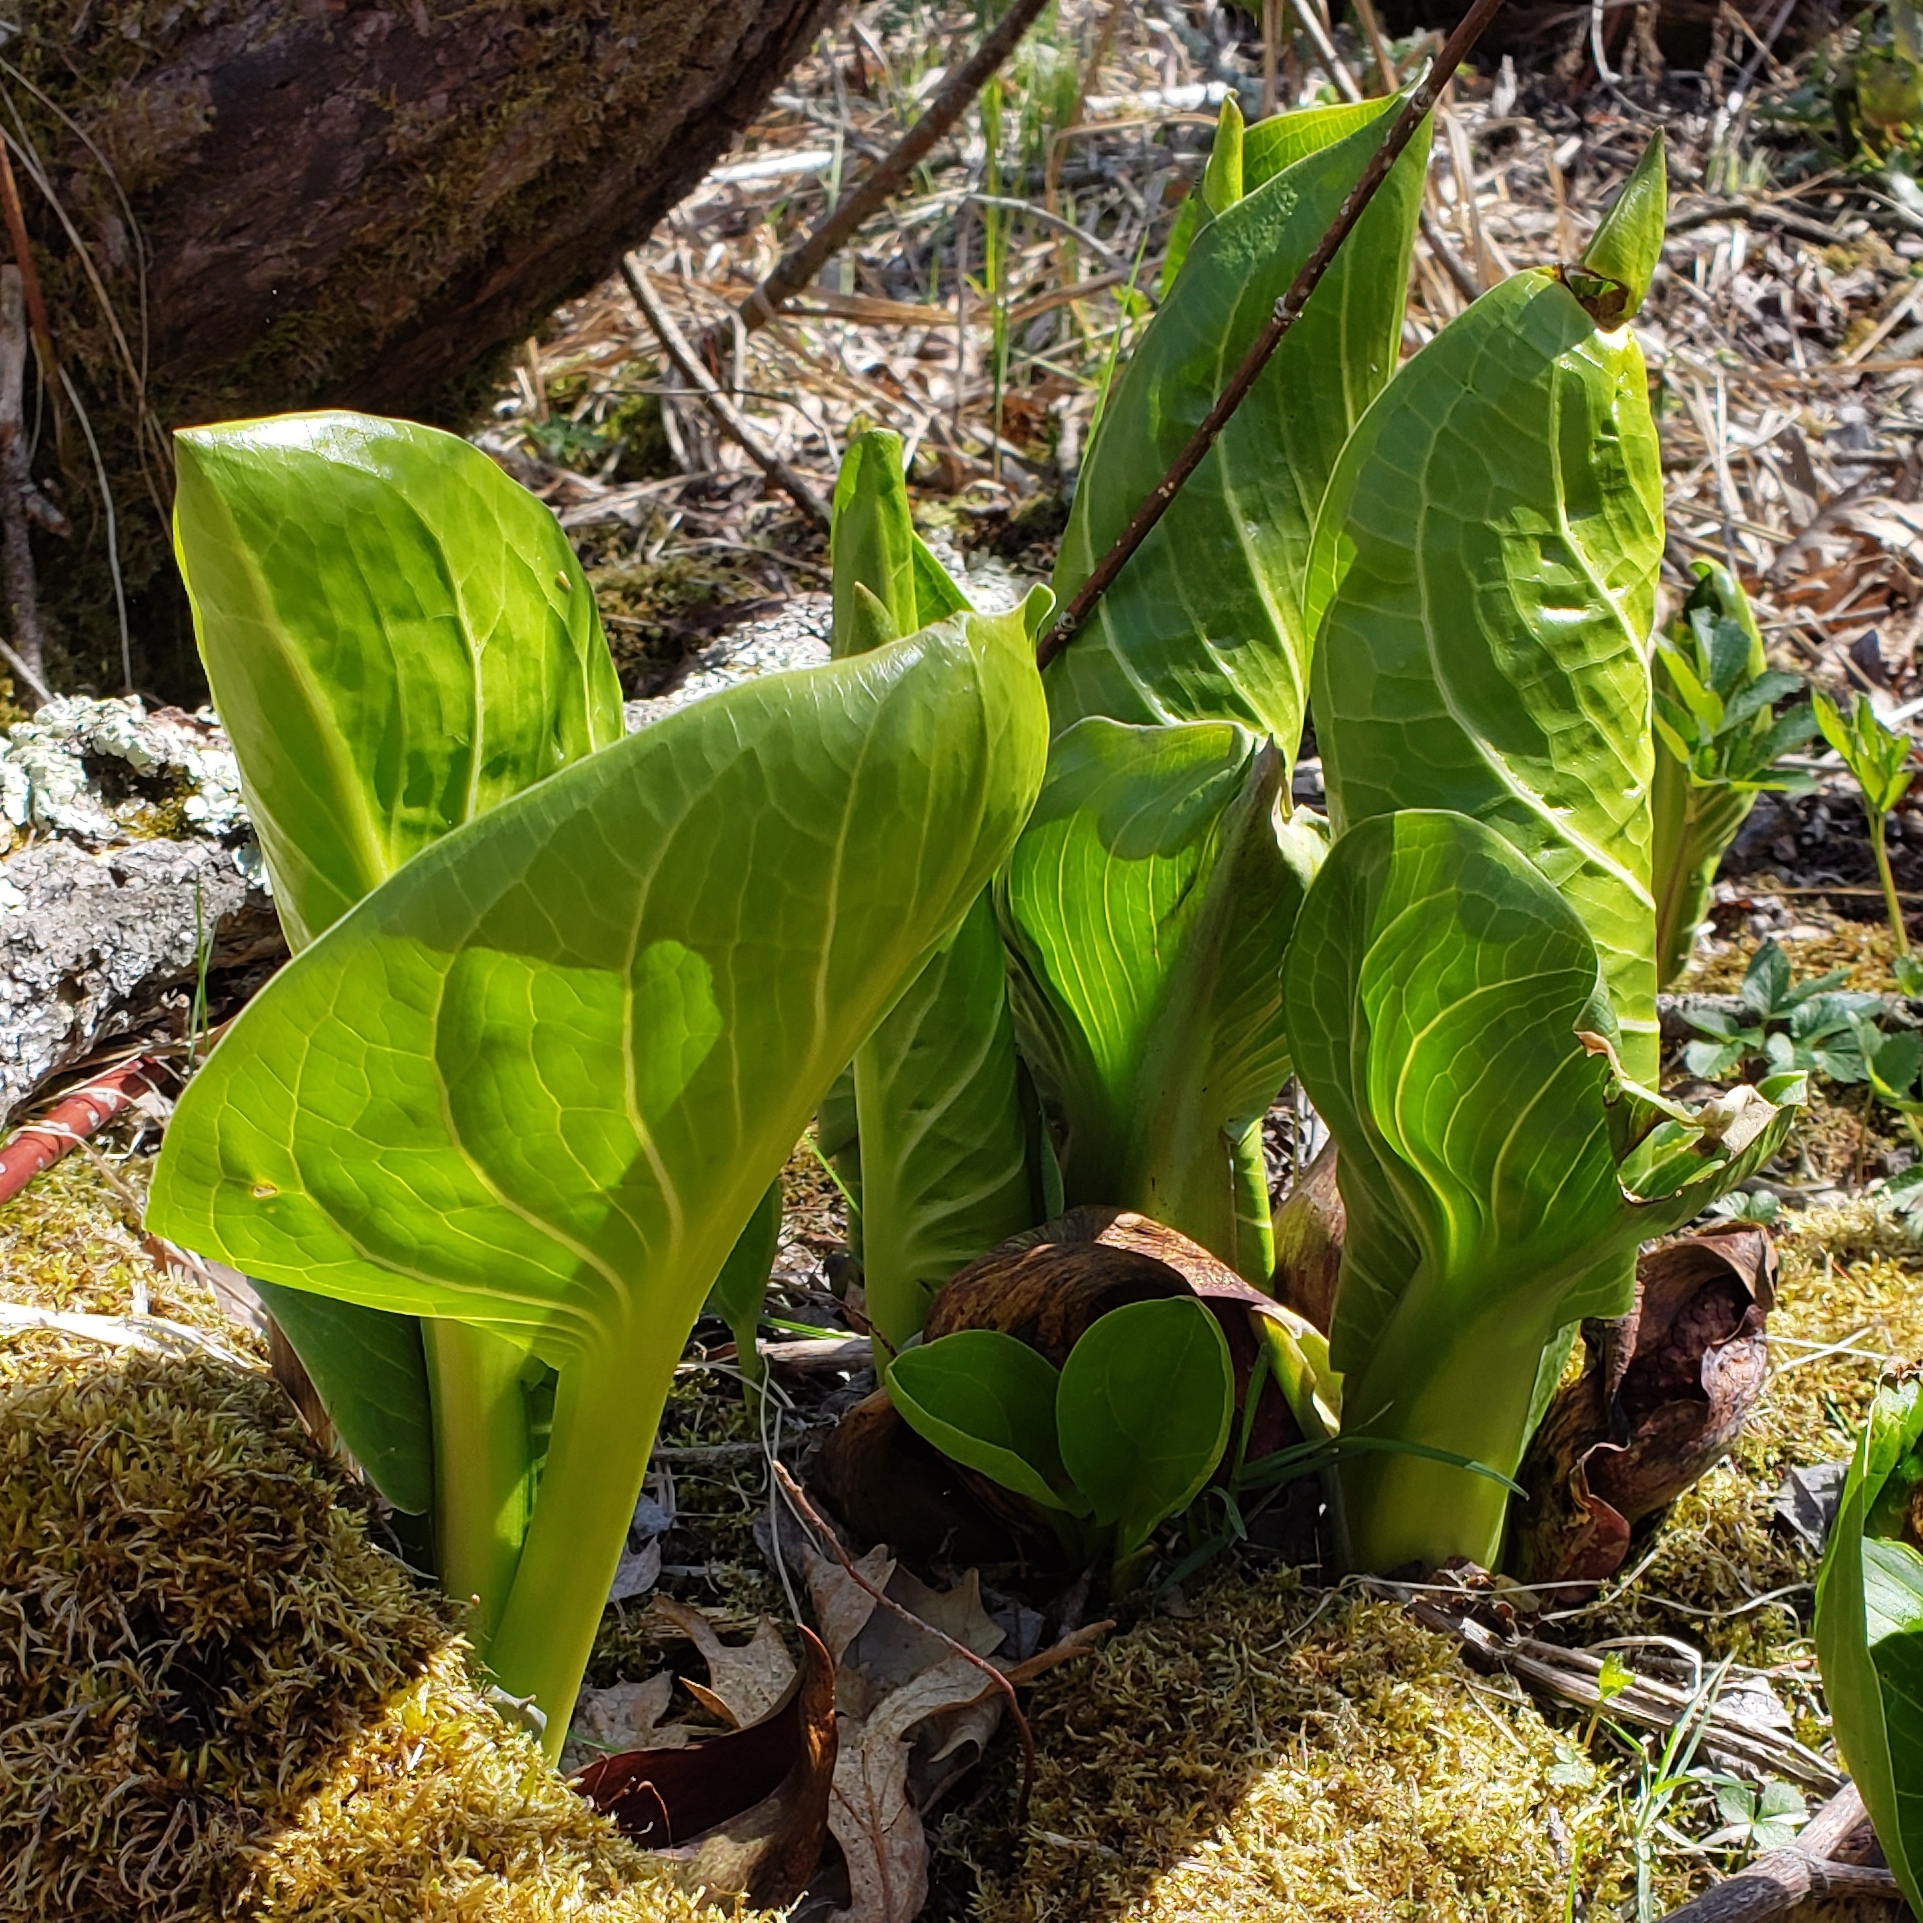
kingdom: Plantae
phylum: Tracheophyta
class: Liliopsida
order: Alismatales
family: Araceae
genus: Symplocarpus
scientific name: Symplocarpus foetidus
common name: Eastern skunk cabbage
